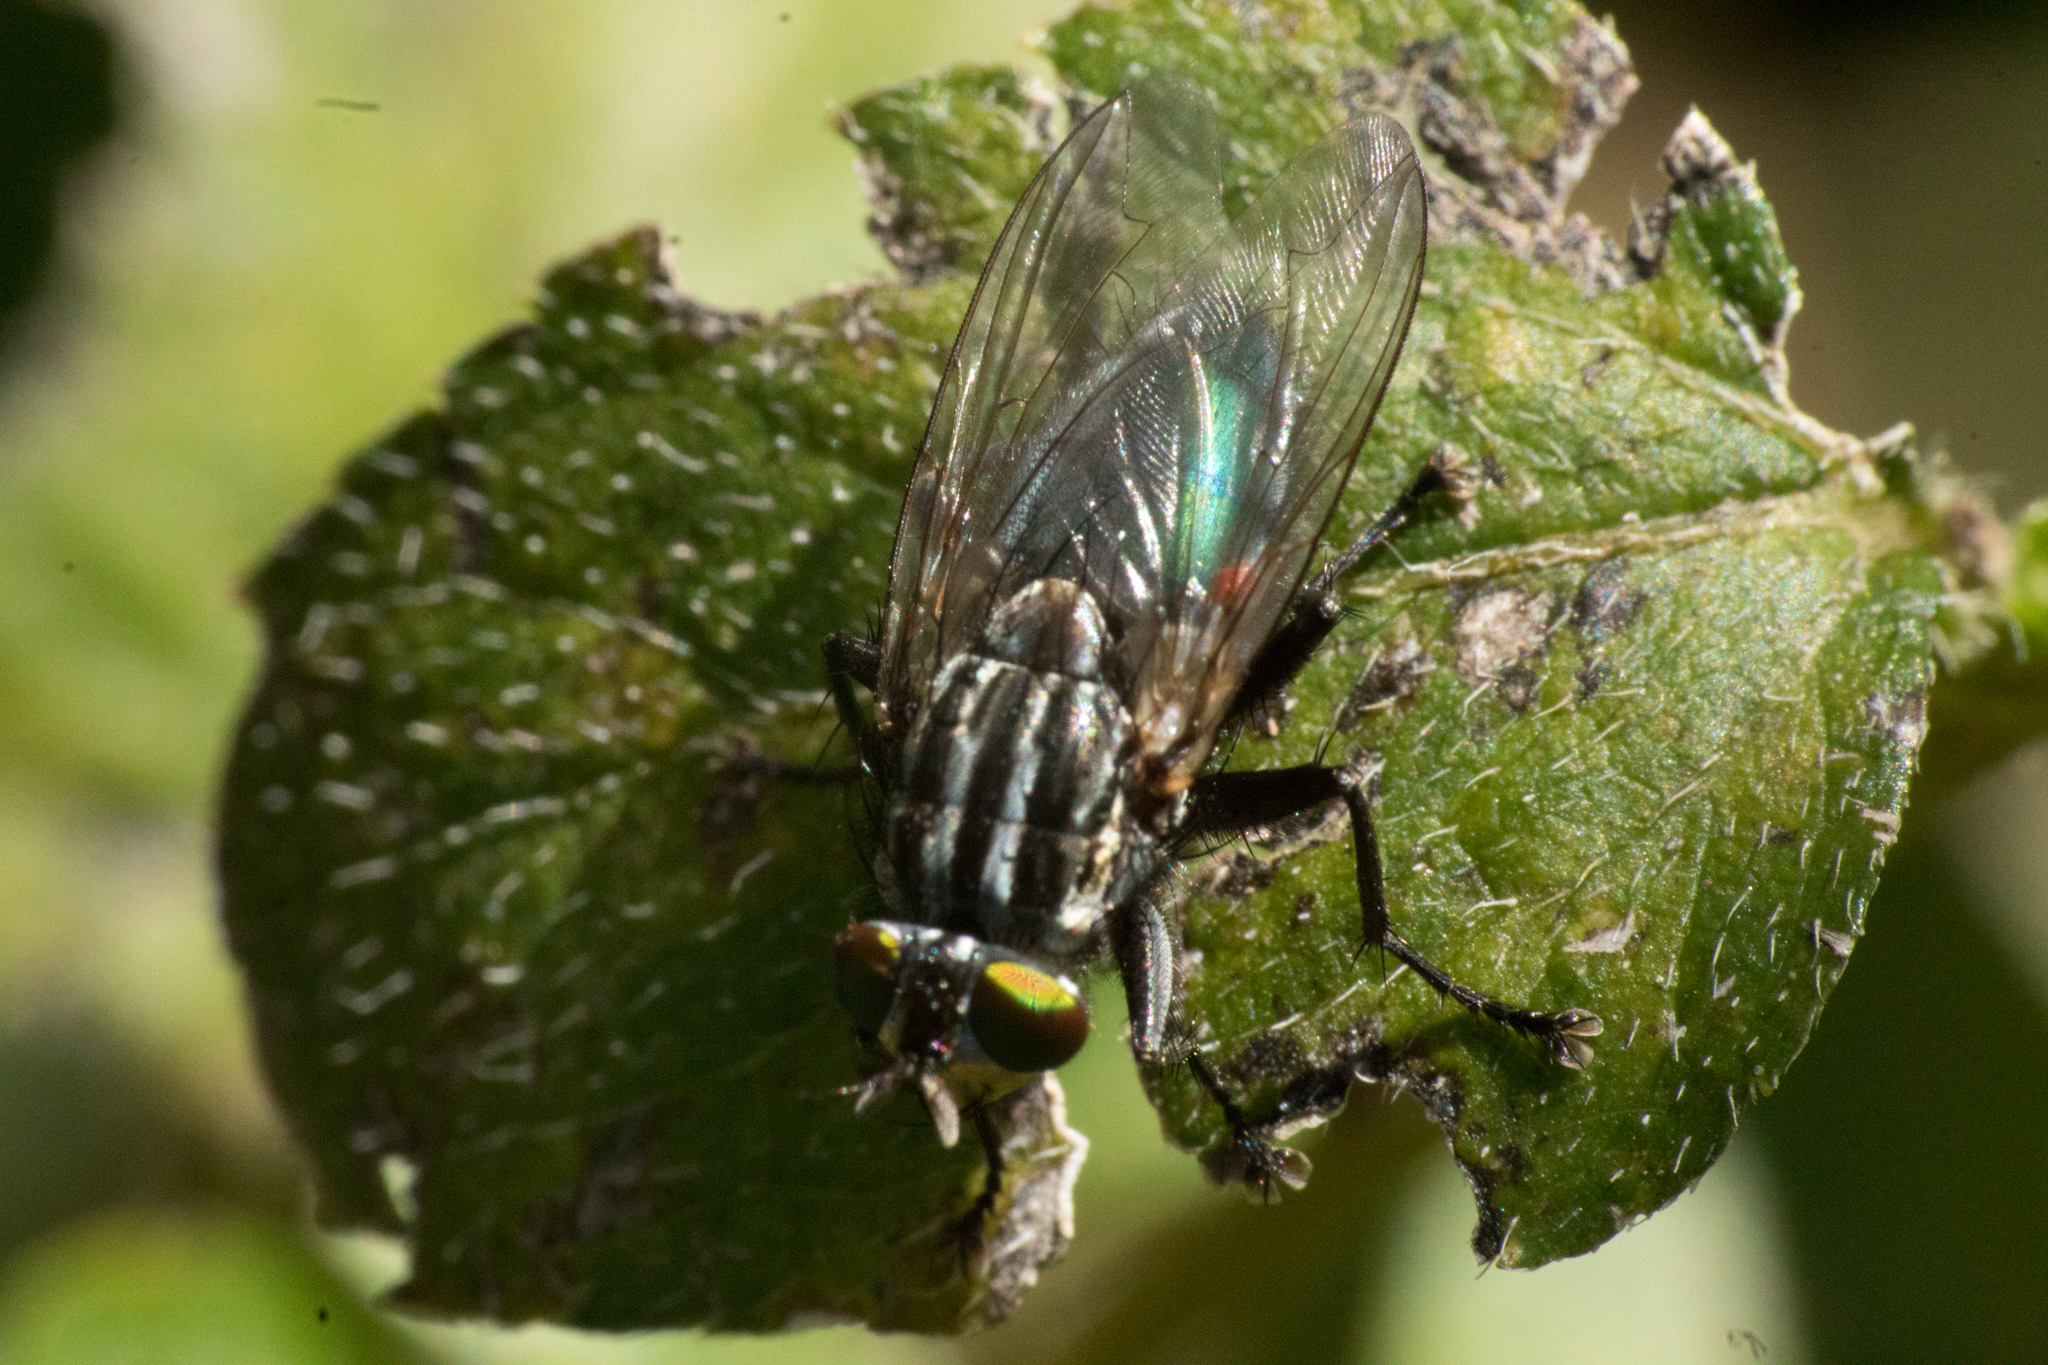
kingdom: Animalia
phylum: Arthropoda
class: Insecta
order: Diptera
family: Calliphoridae
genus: Sarconesia
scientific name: Sarconesia chlorogaster
